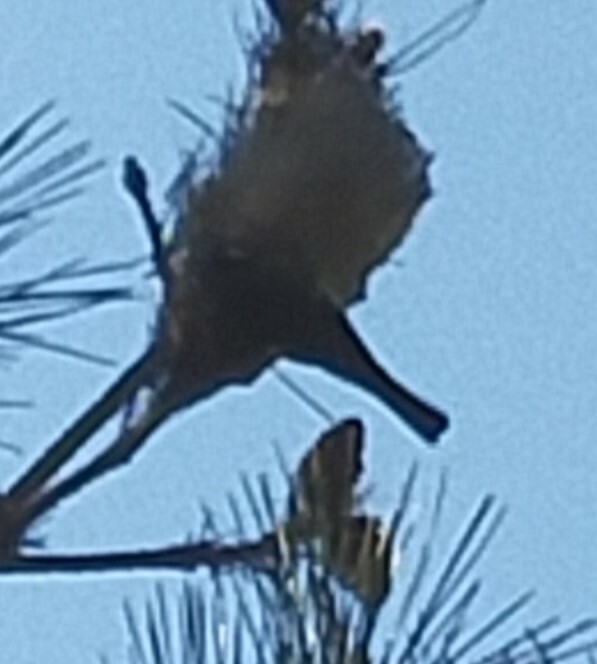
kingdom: Animalia
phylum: Chordata
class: Aves
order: Passeriformes
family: Paridae
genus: Cyanistes
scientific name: Cyanistes caeruleus
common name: Eurasian blue tit
